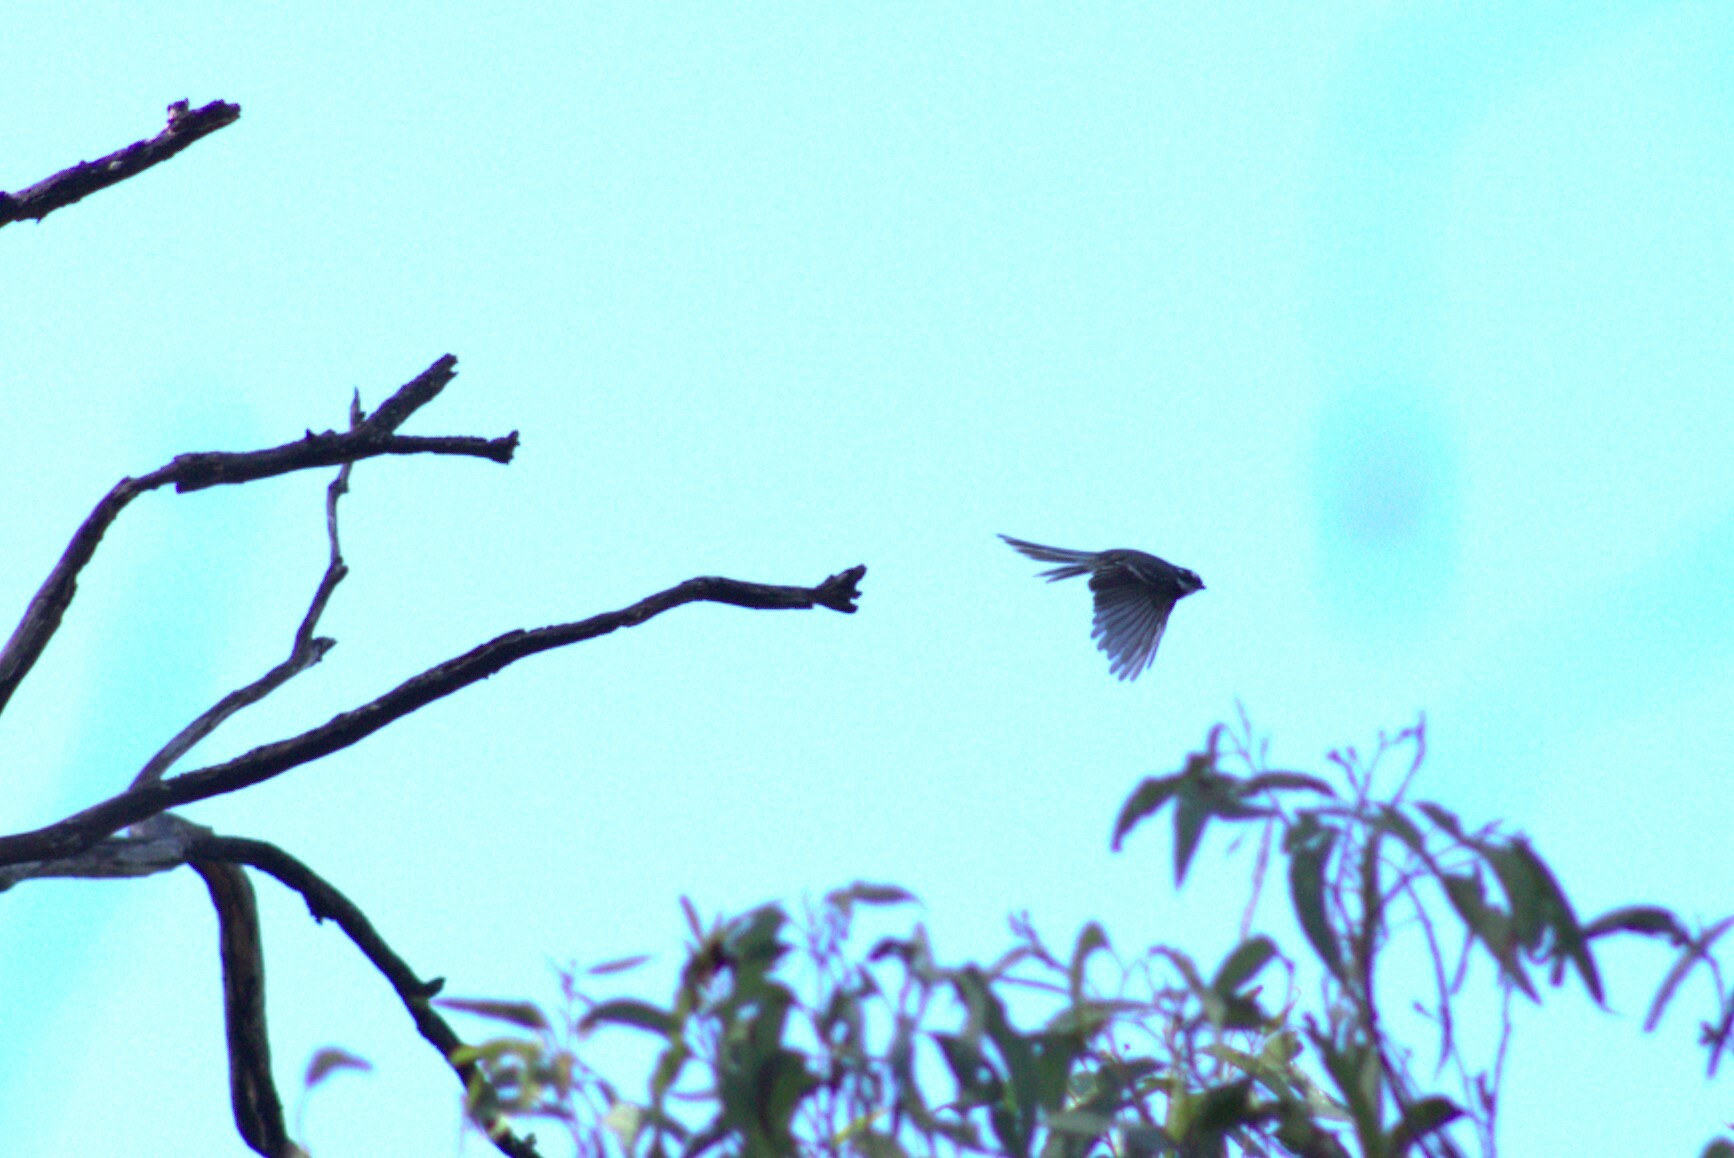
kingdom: Animalia
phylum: Chordata
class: Aves
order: Passeriformes
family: Rhipiduridae
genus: Rhipidura
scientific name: Rhipidura albiscapa
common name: Grey fantail
